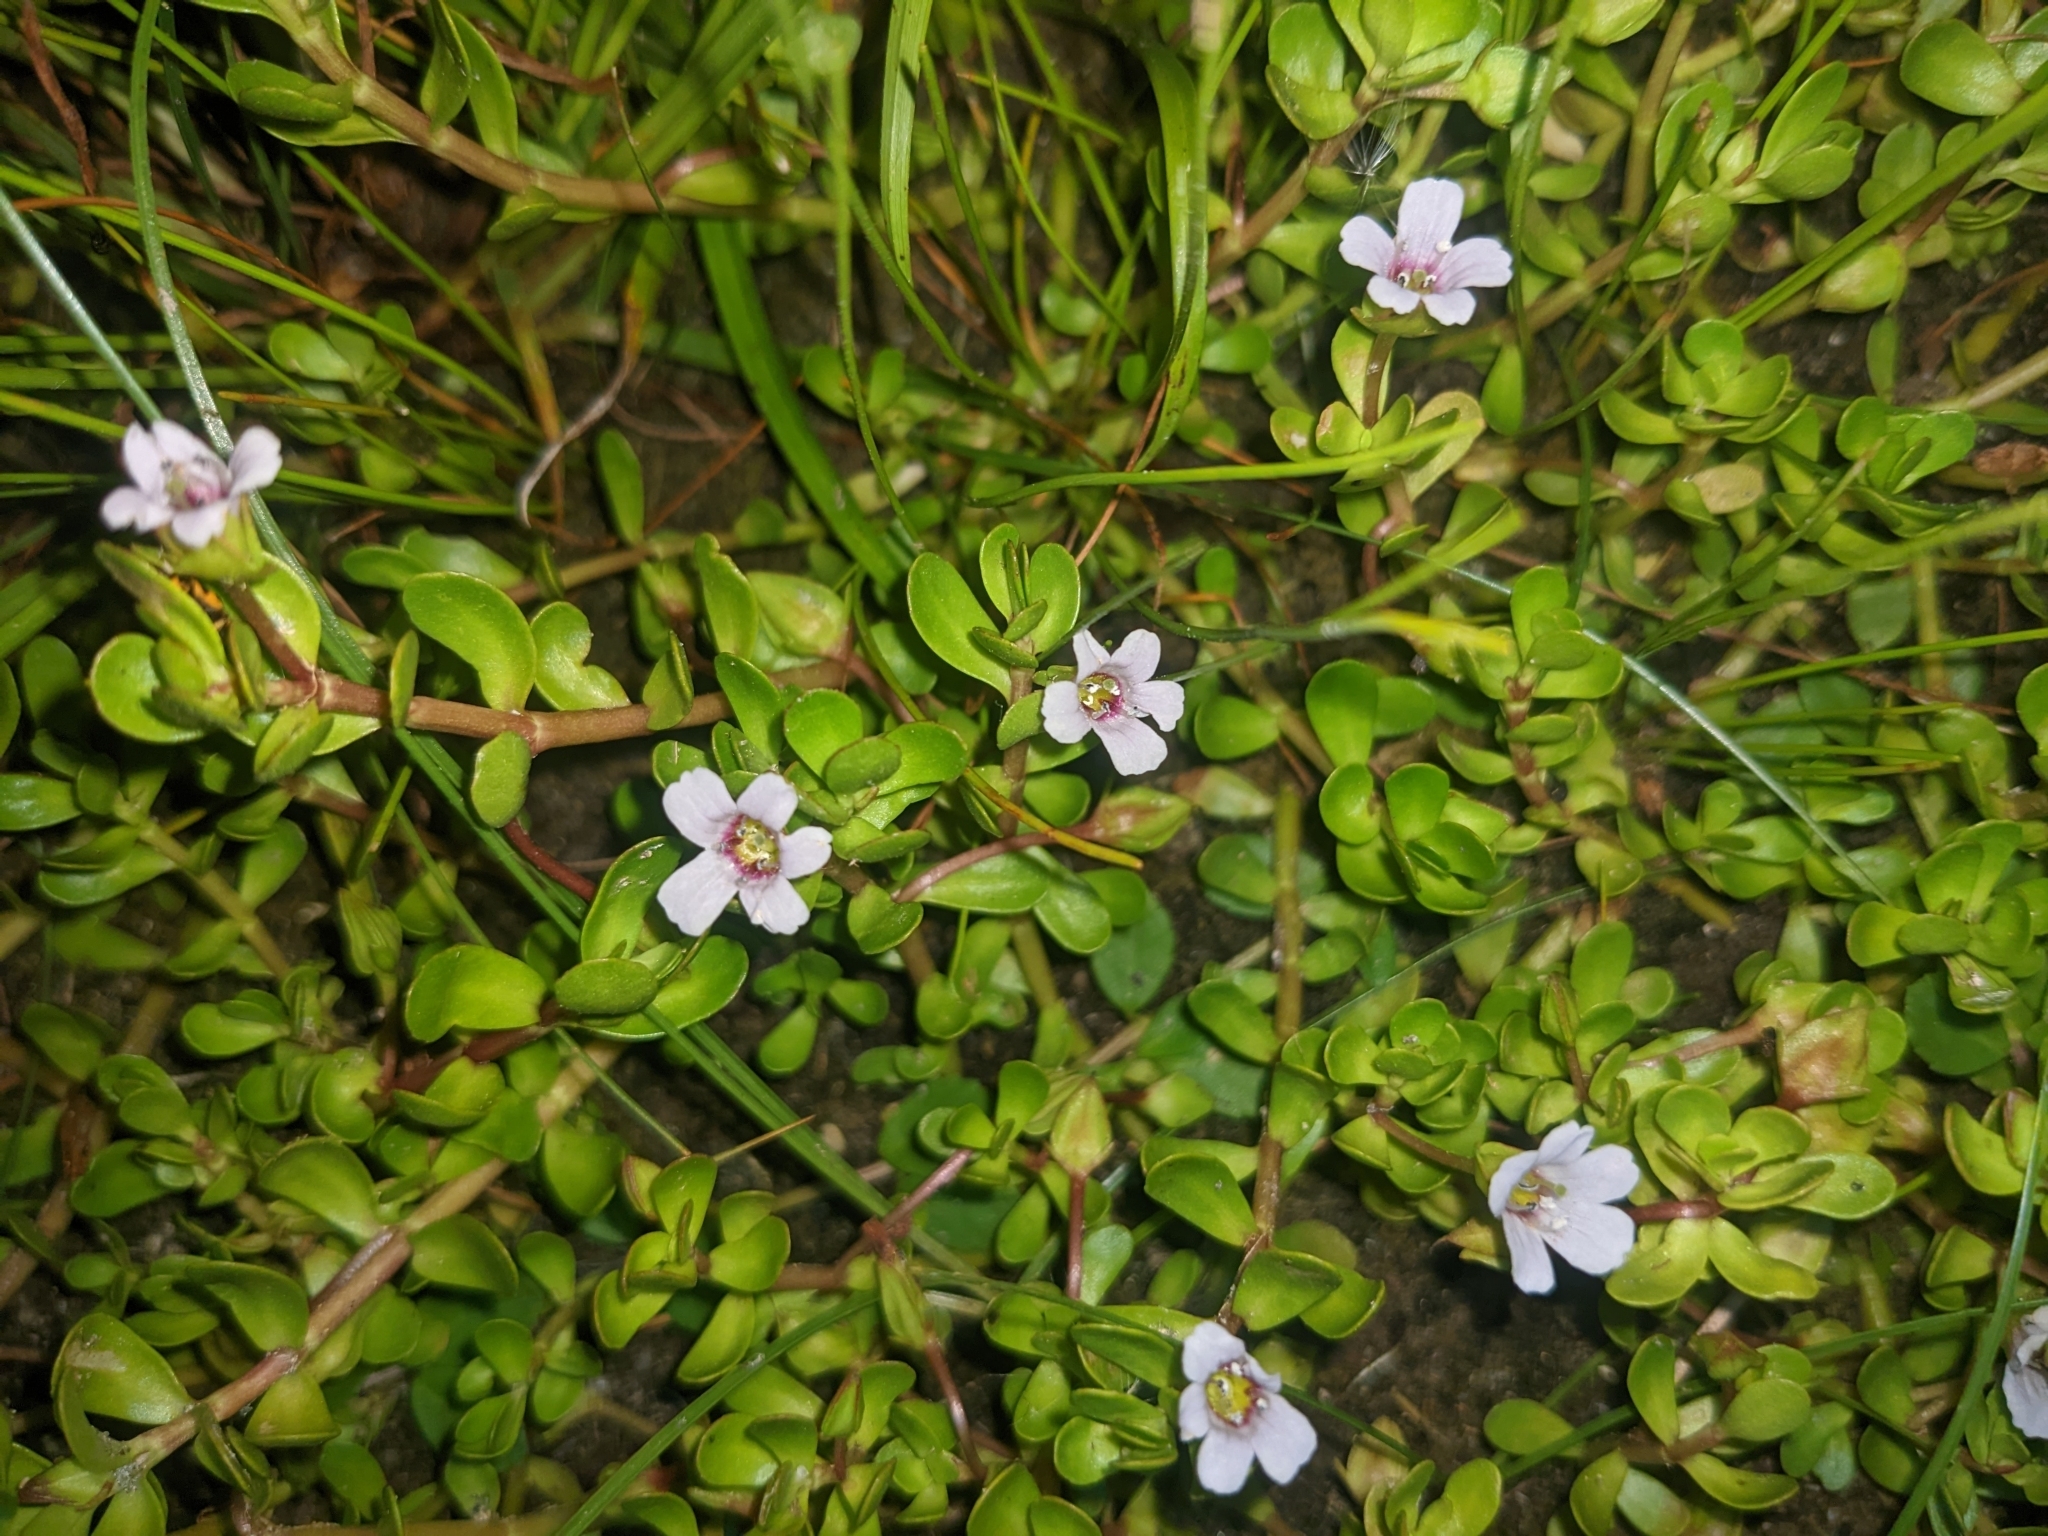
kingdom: Plantae
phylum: Tracheophyta
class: Magnoliopsida
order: Lamiales
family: Plantaginaceae
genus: Bacopa
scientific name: Bacopa monnieri
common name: Indian-pennywort
